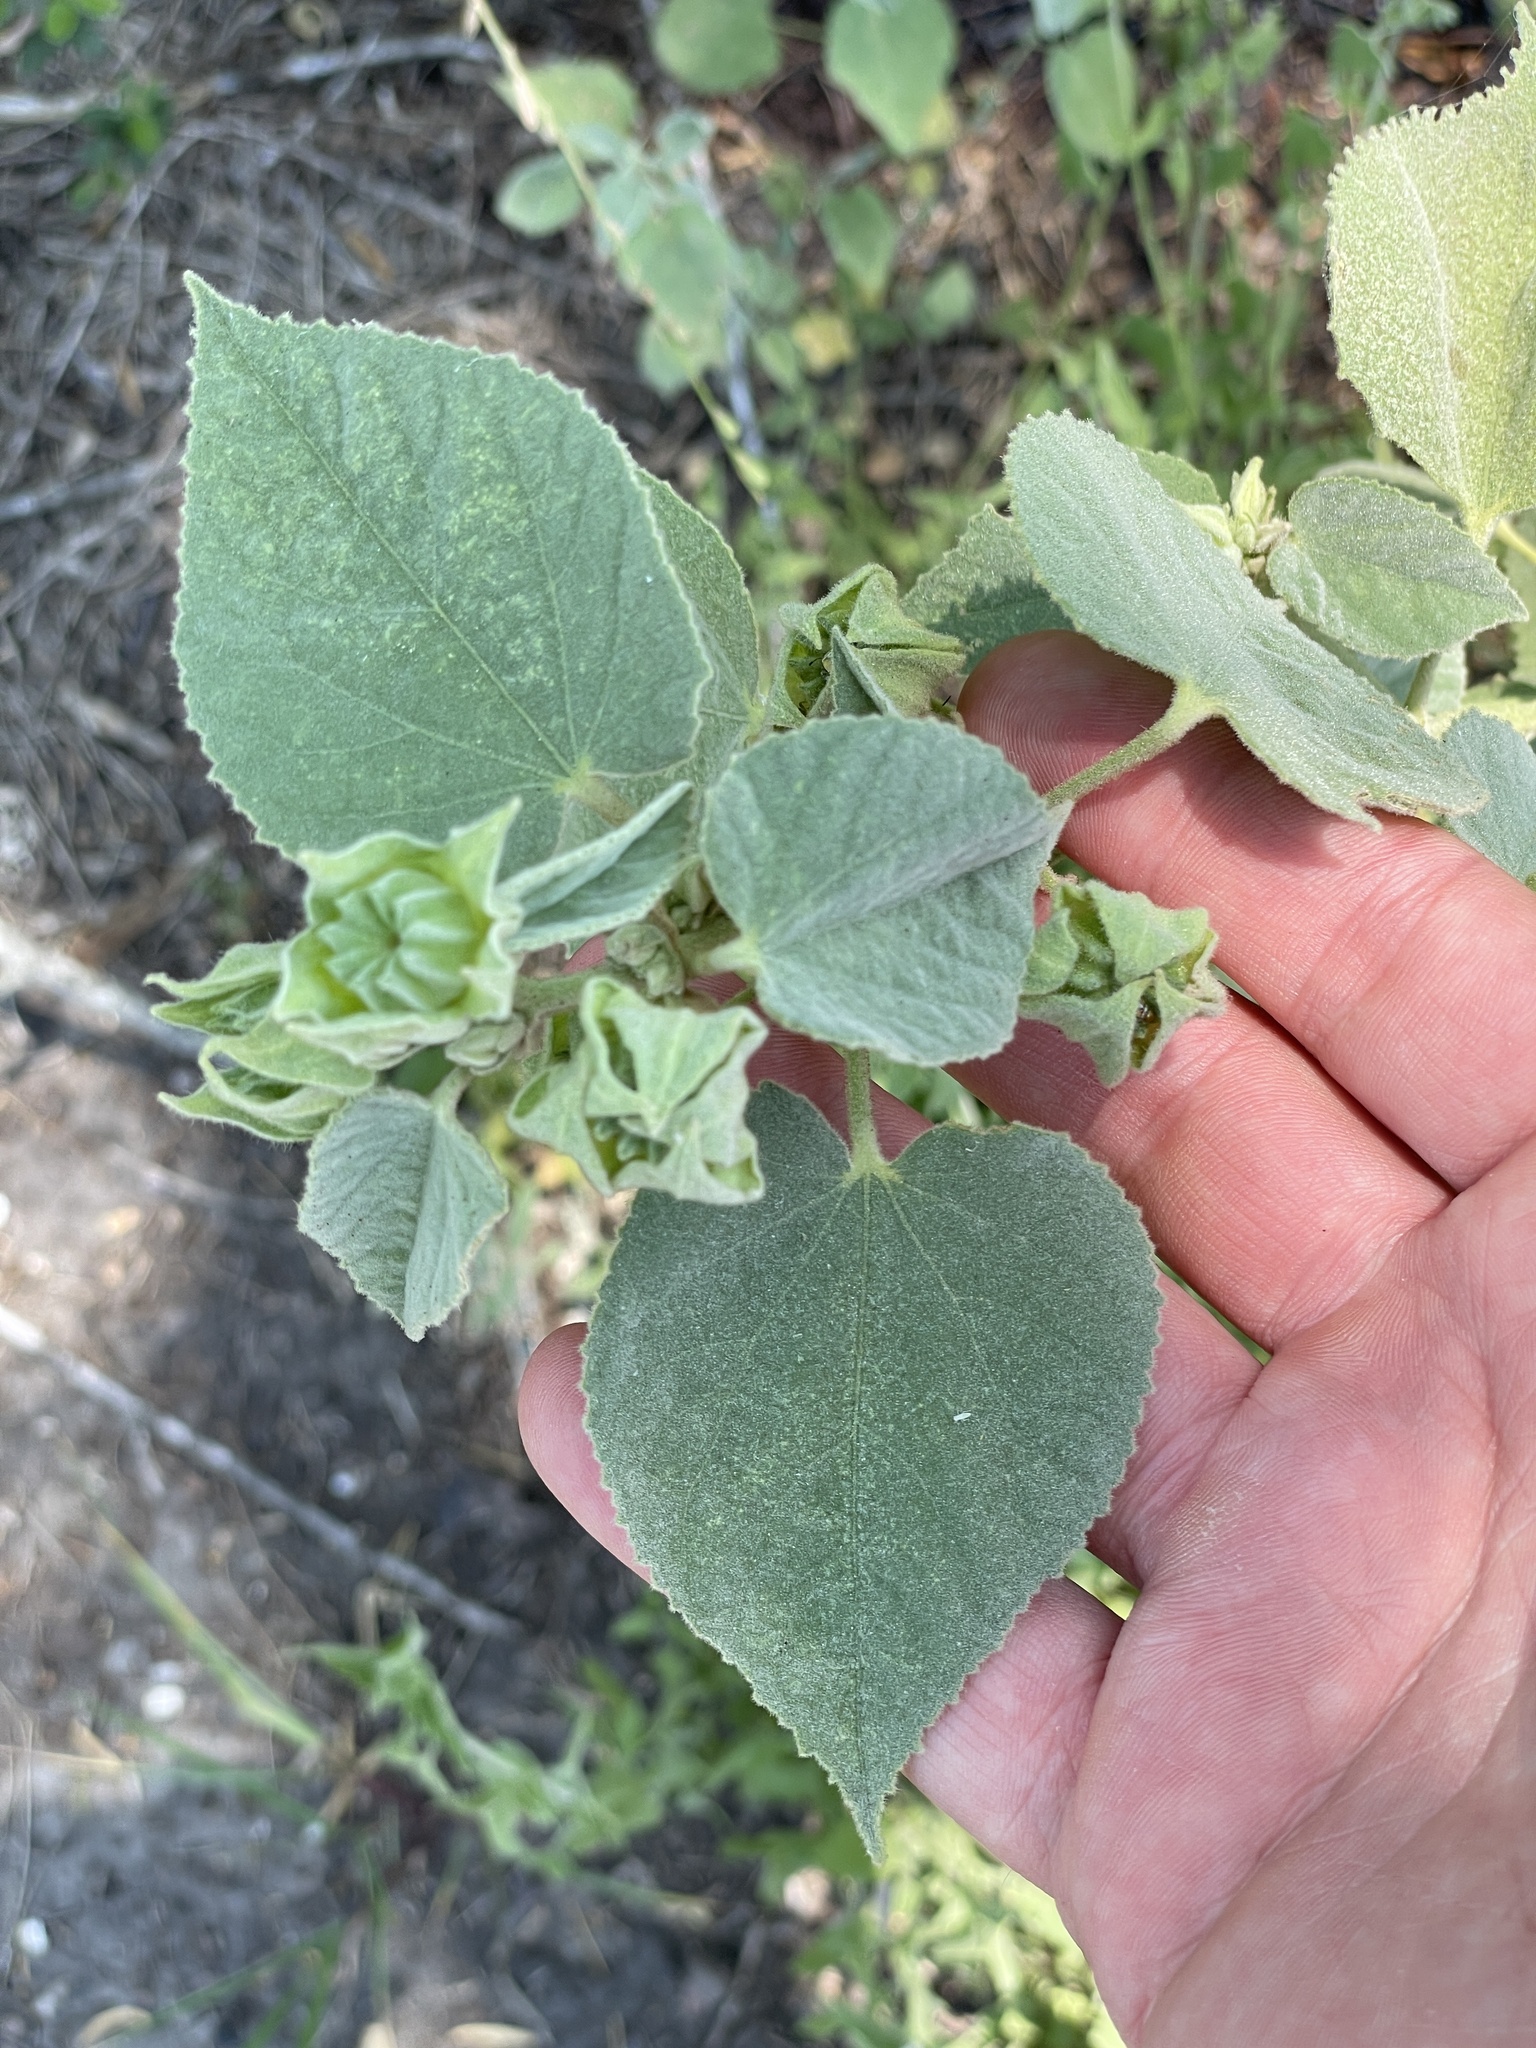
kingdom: Plantae
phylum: Tracheophyta
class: Magnoliopsida
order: Malvales
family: Malvaceae
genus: Abutilon
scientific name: Abutilon abutiloides
